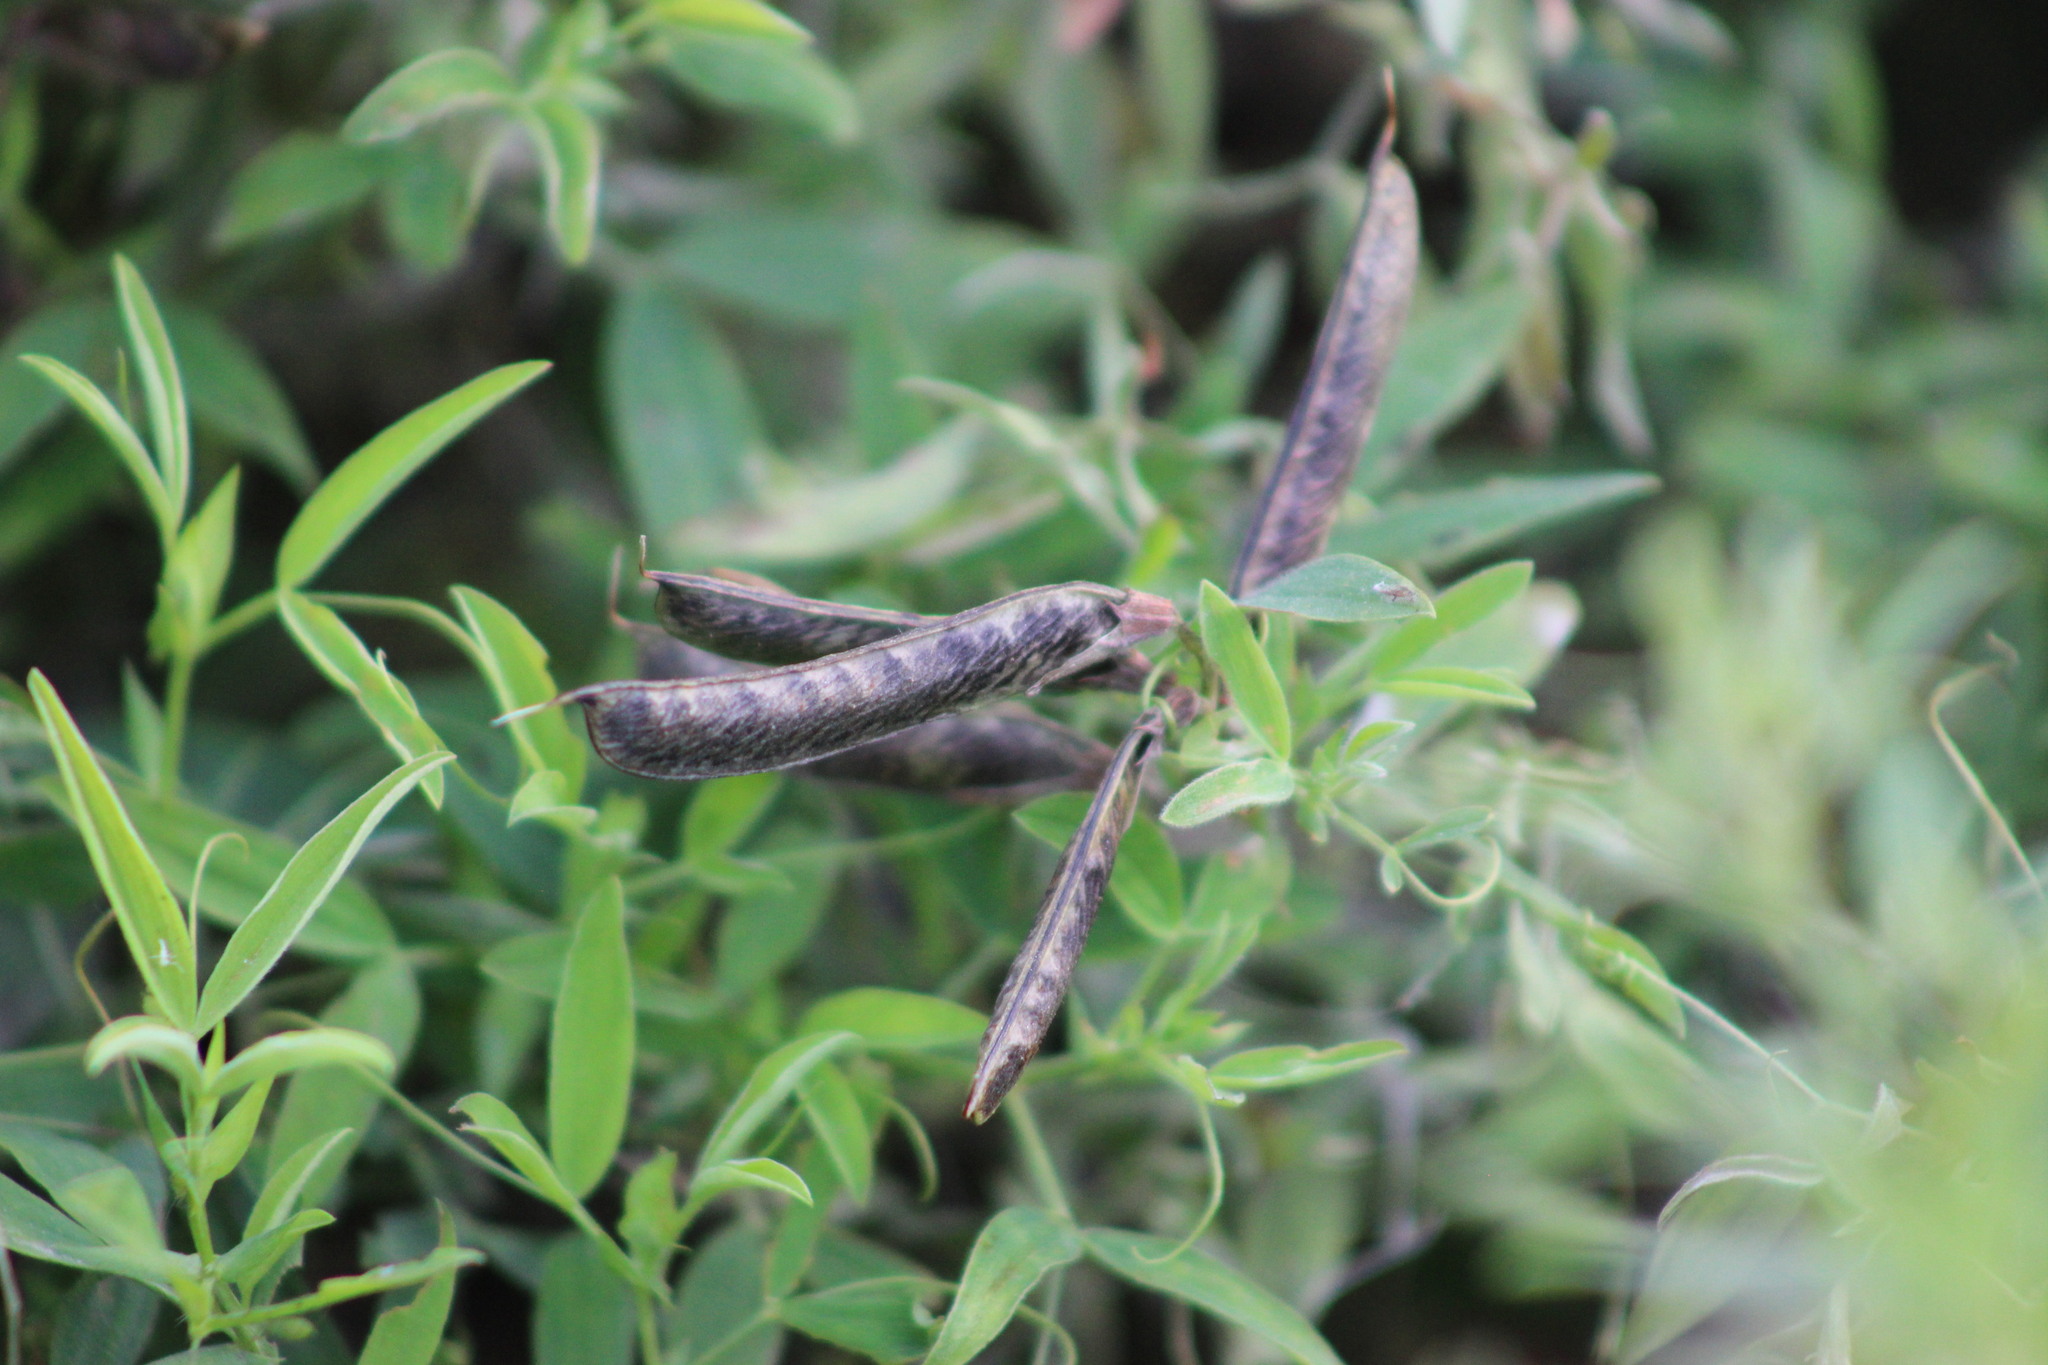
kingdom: Plantae
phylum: Tracheophyta
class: Magnoliopsida
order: Fabales
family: Fabaceae
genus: Lathyrus
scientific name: Lathyrus pratensis
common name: Meadow vetchling
